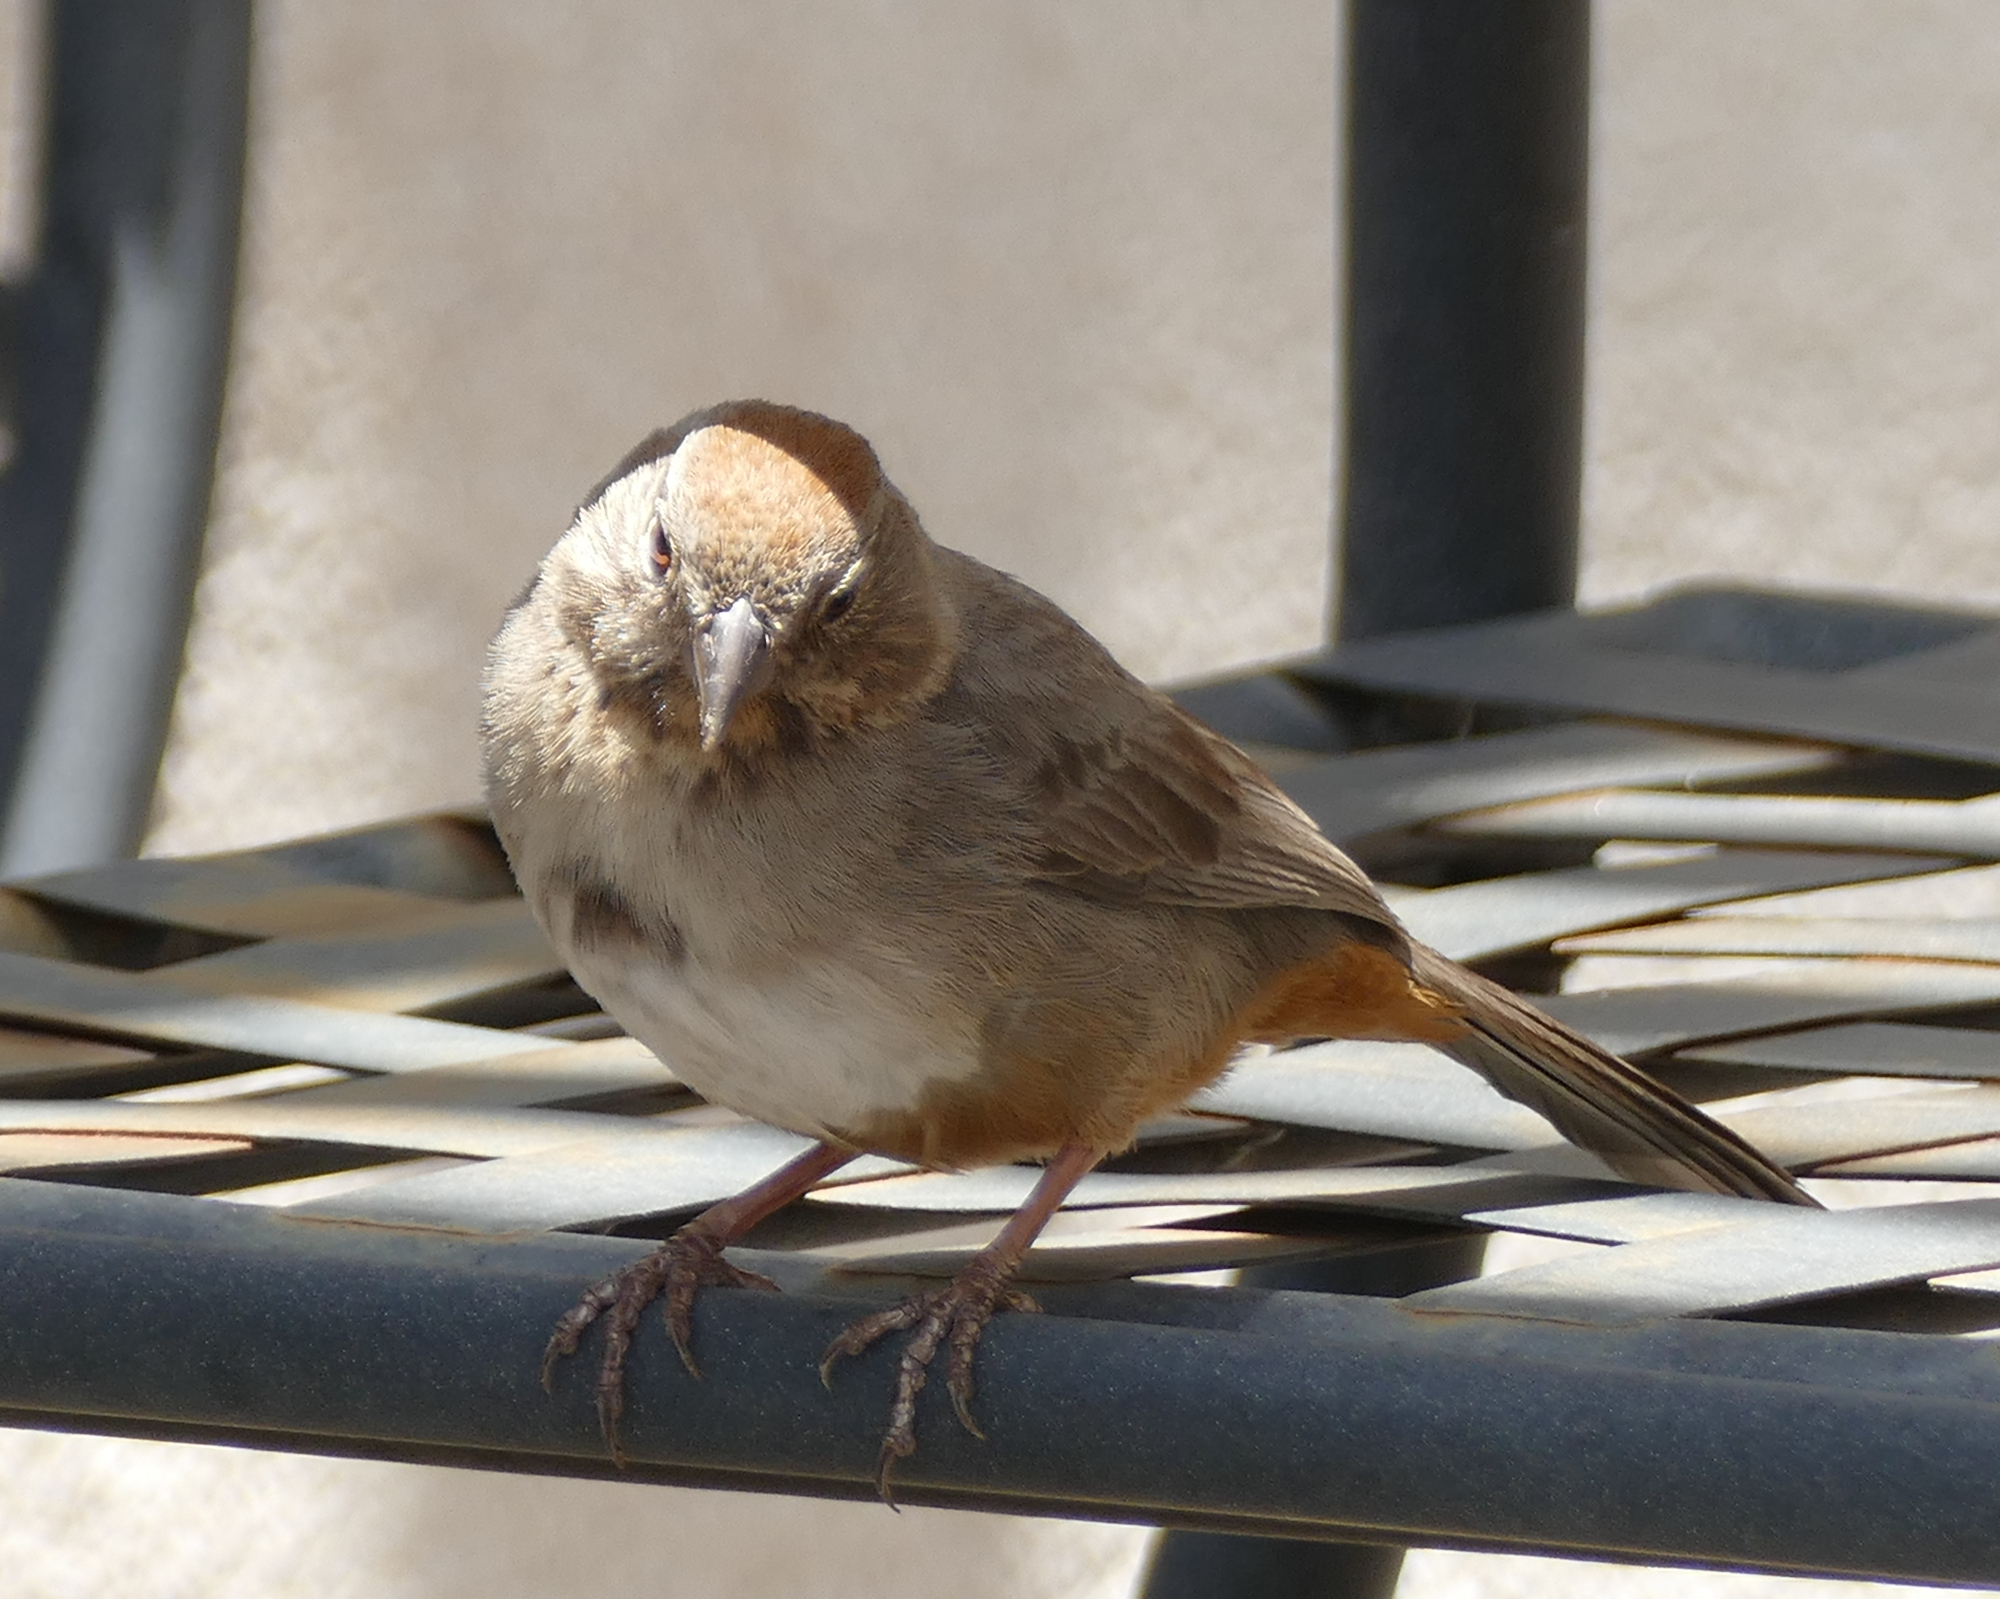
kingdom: Animalia
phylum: Chordata
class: Aves
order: Passeriformes
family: Passerellidae
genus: Melozone
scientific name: Melozone fusca
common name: Canyon towhee
